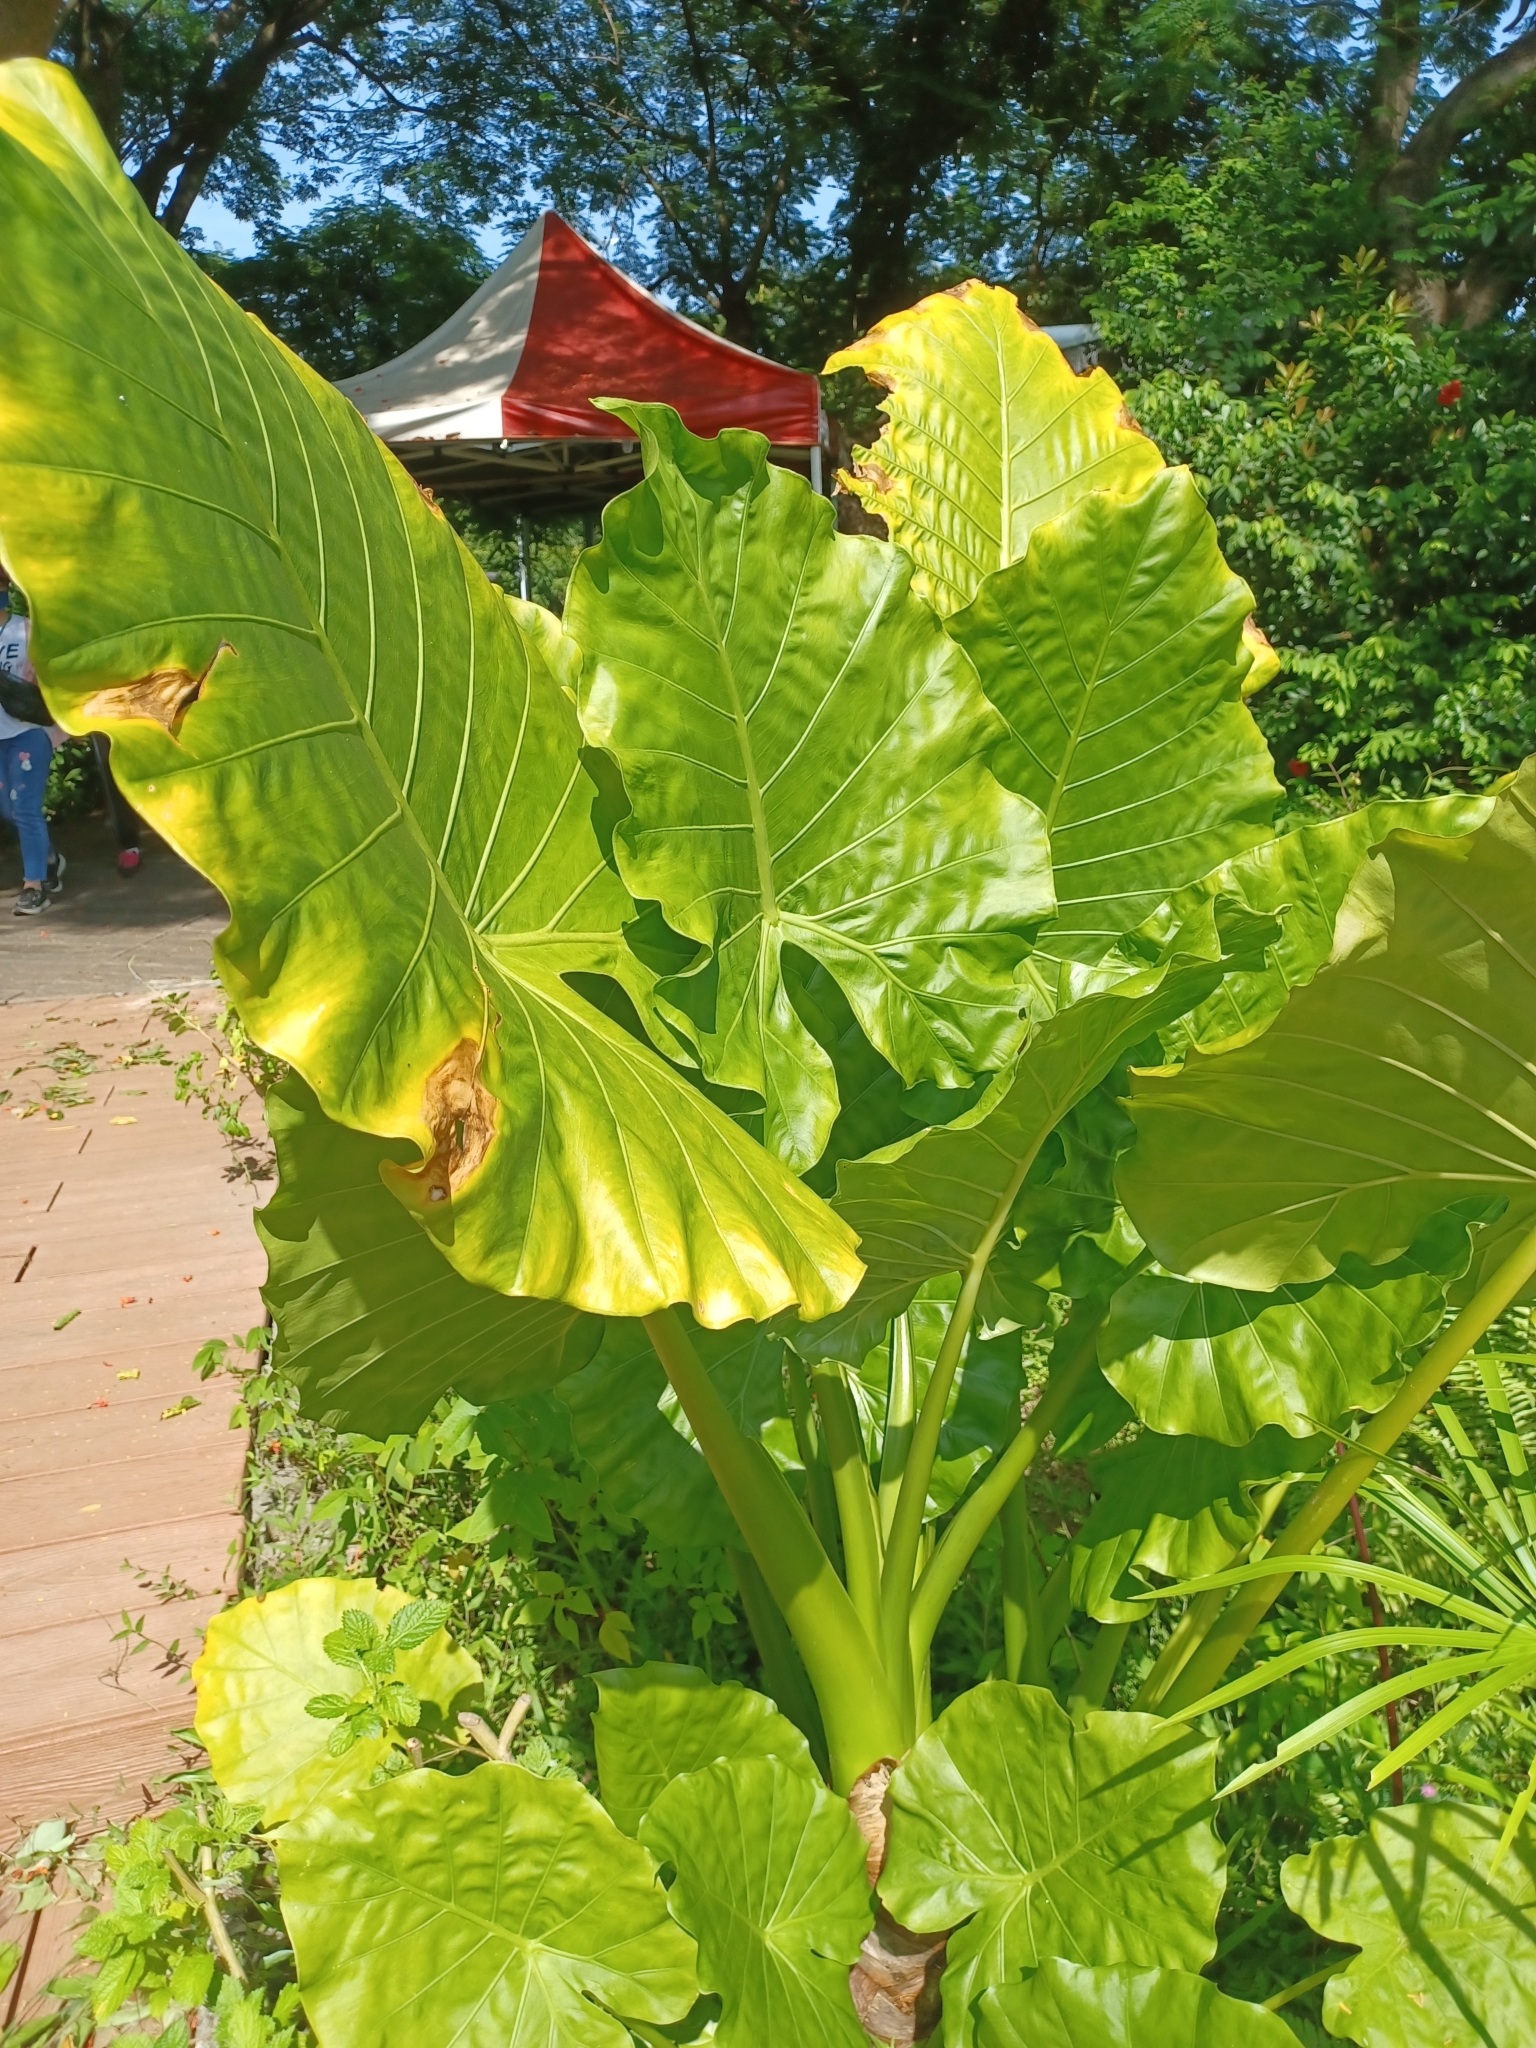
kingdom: Plantae
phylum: Tracheophyta
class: Liliopsida
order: Alismatales
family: Araceae
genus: Alocasia
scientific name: Alocasia odora
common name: Asian taro
